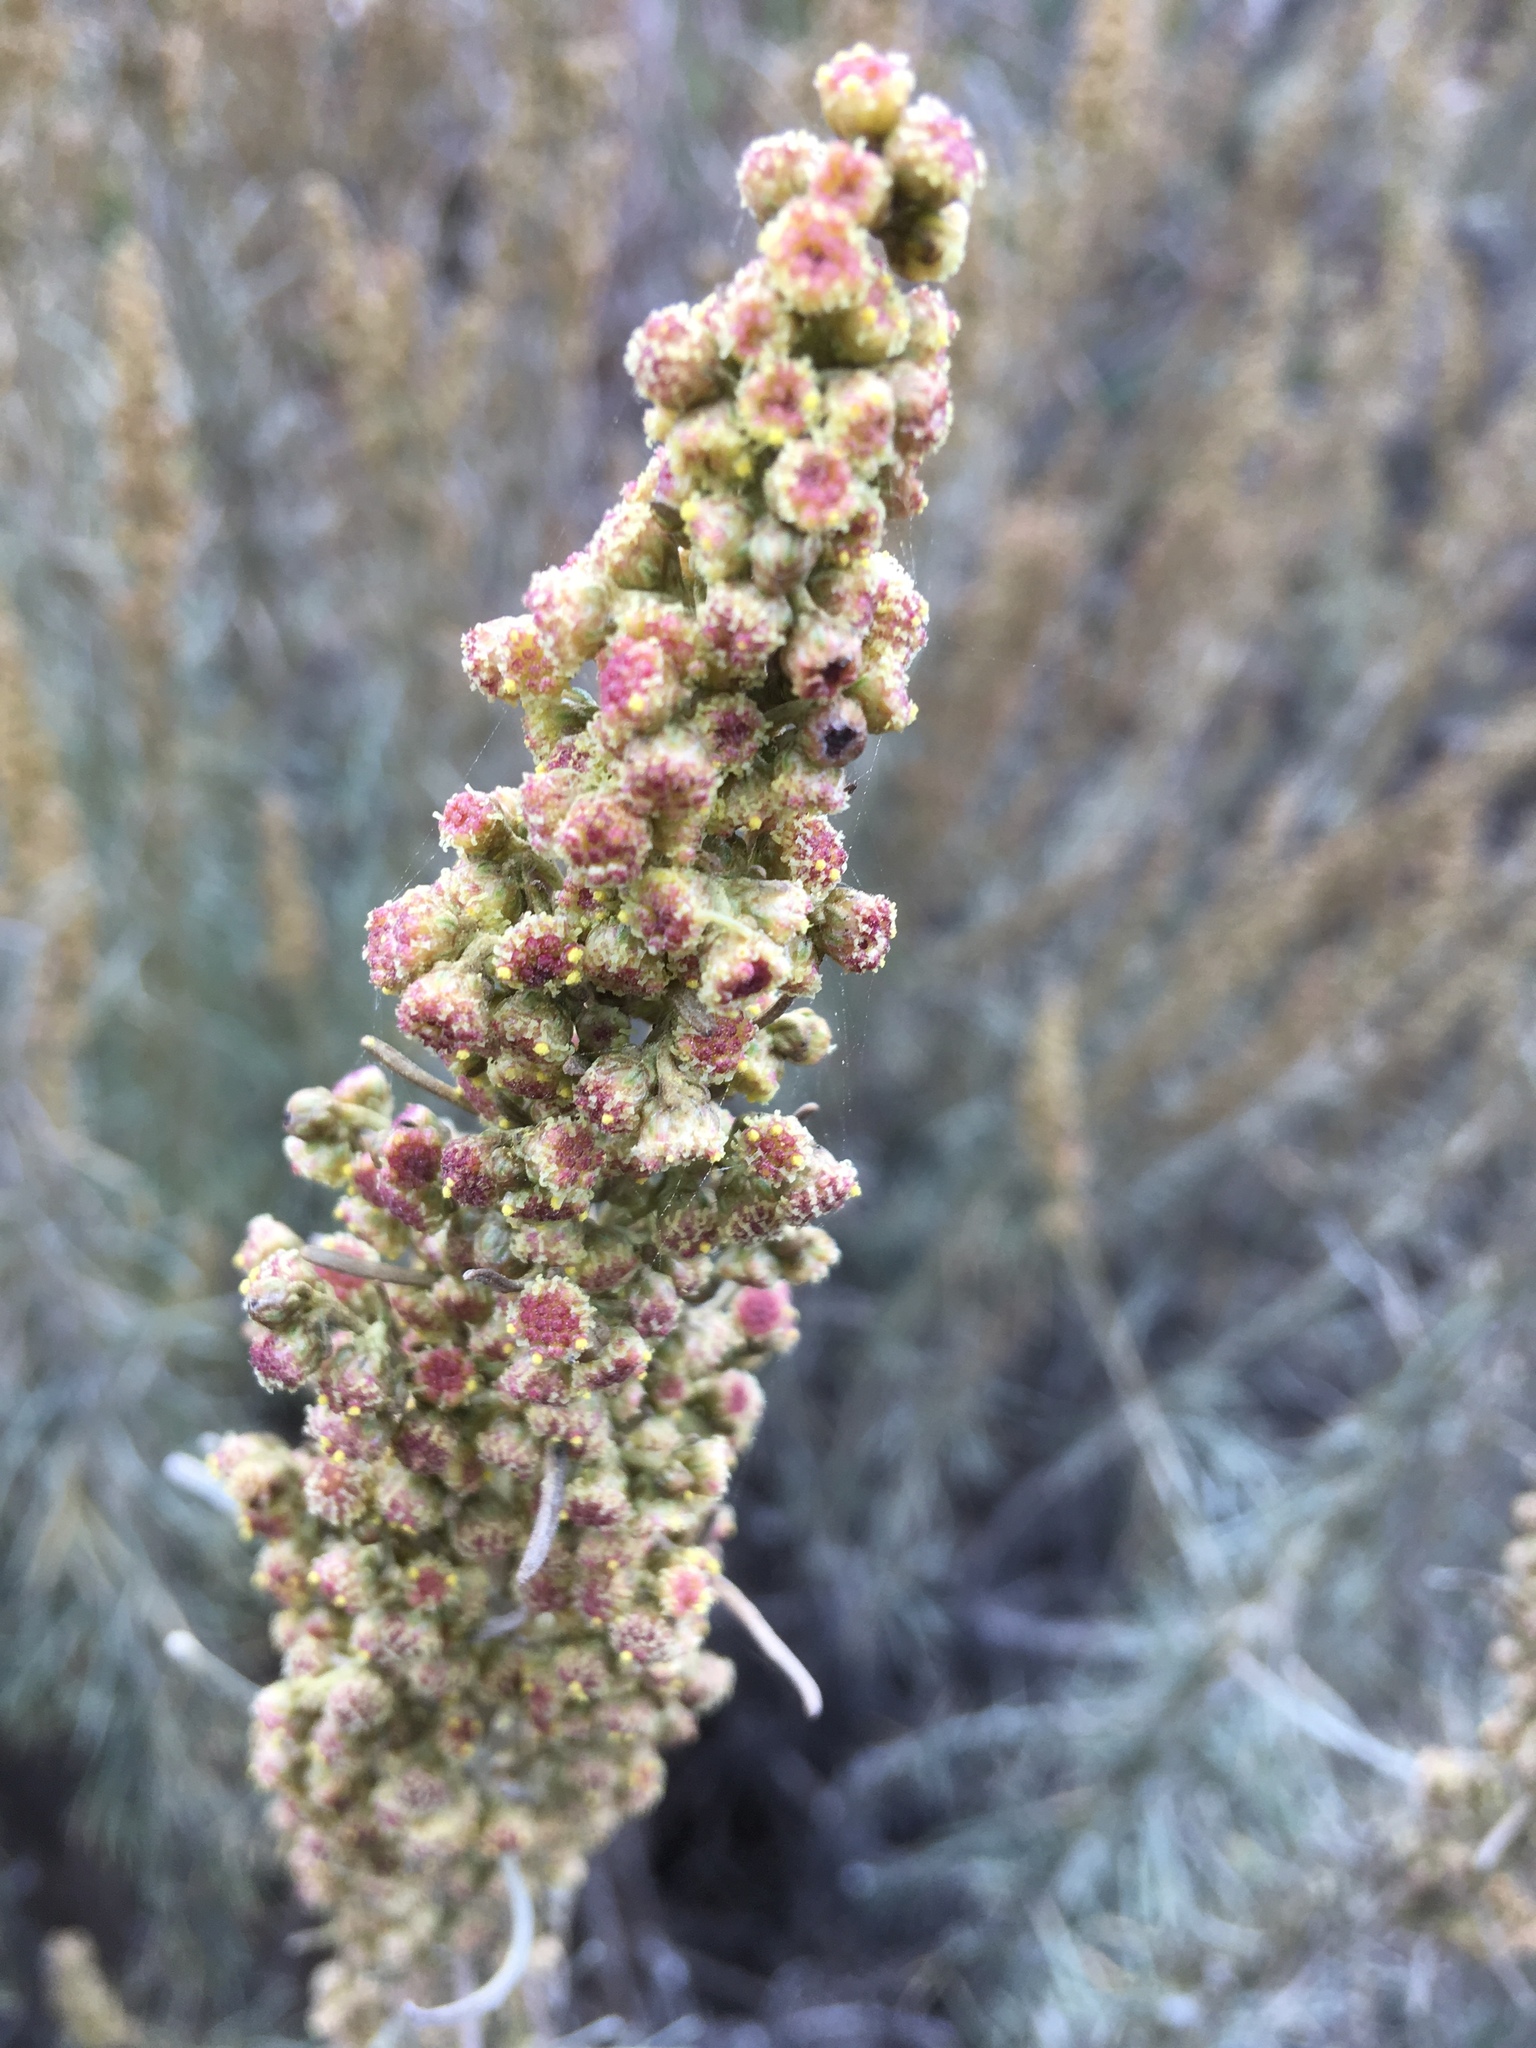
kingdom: Plantae
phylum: Tracheophyta
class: Magnoliopsida
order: Asterales
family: Asteraceae
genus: Artemisia
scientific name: Artemisia californica
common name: California sagebrush
